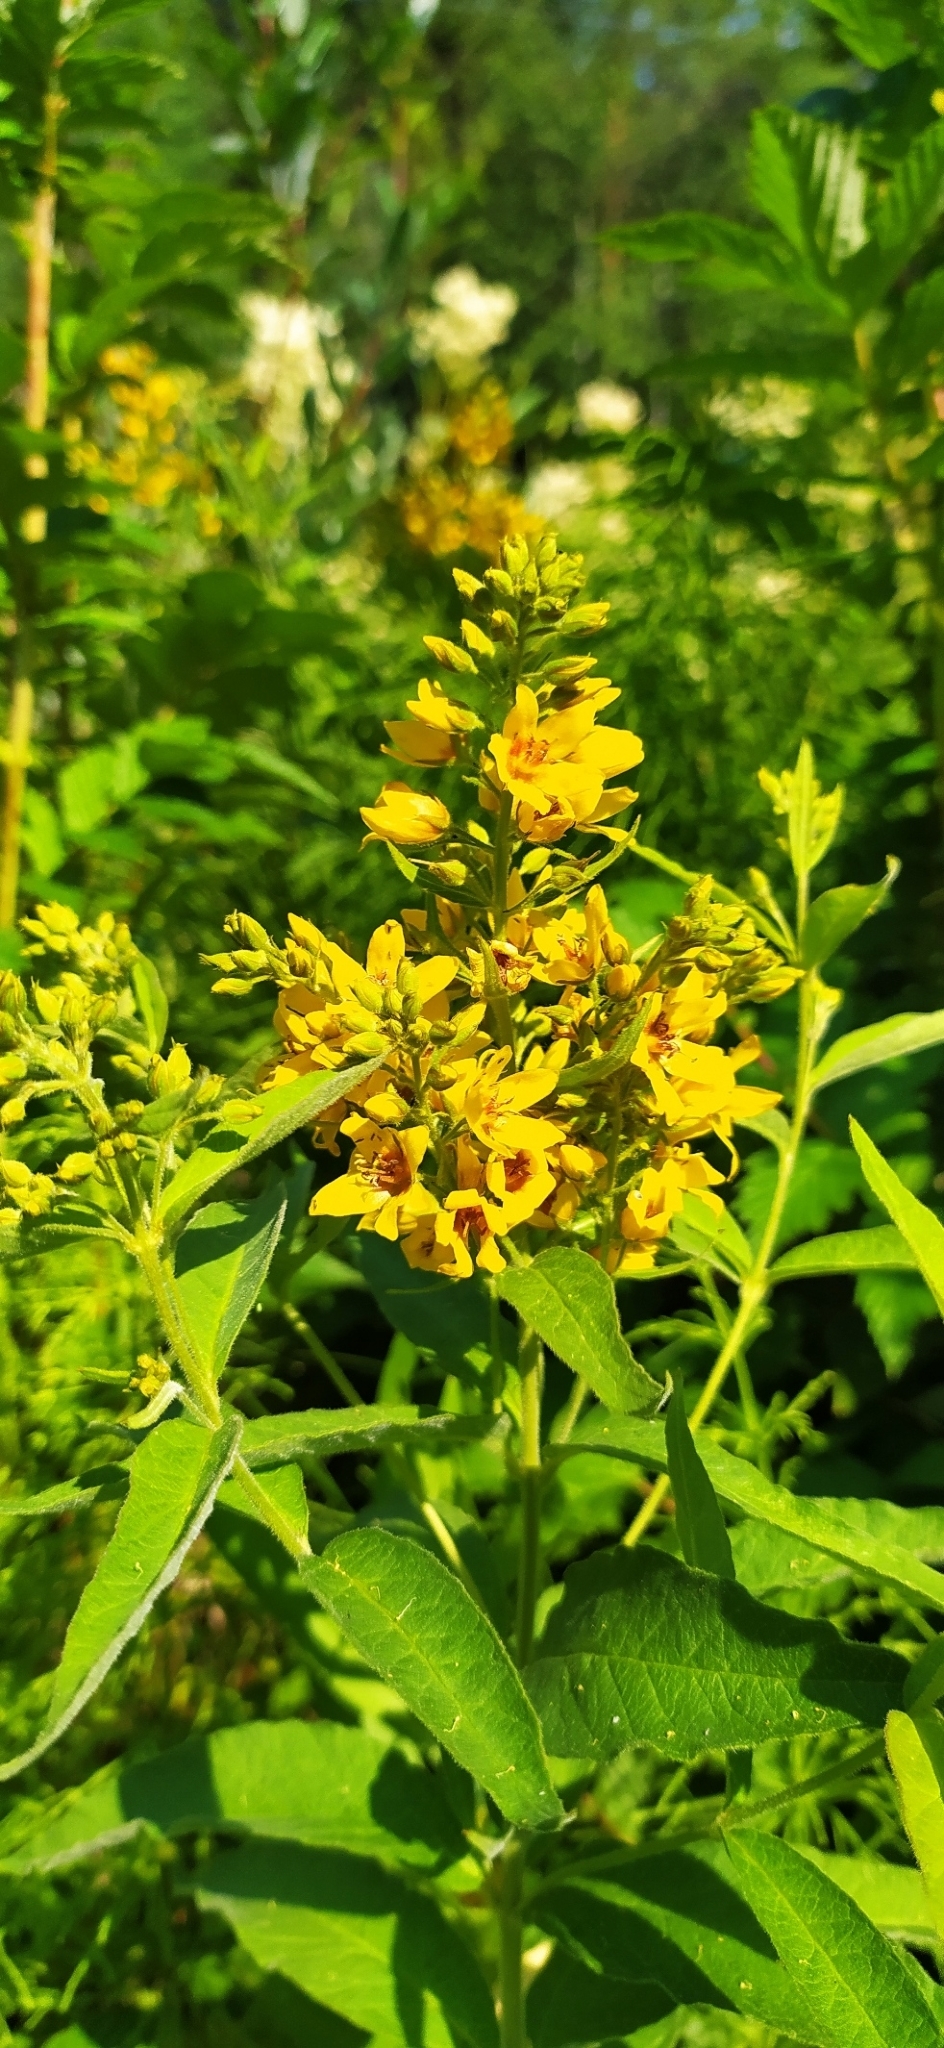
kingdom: Plantae
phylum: Tracheophyta
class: Magnoliopsida
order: Ericales
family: Primulaceae
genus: Lysimachia
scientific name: Lysimachia vulgaris
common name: Yellow loosestrife
